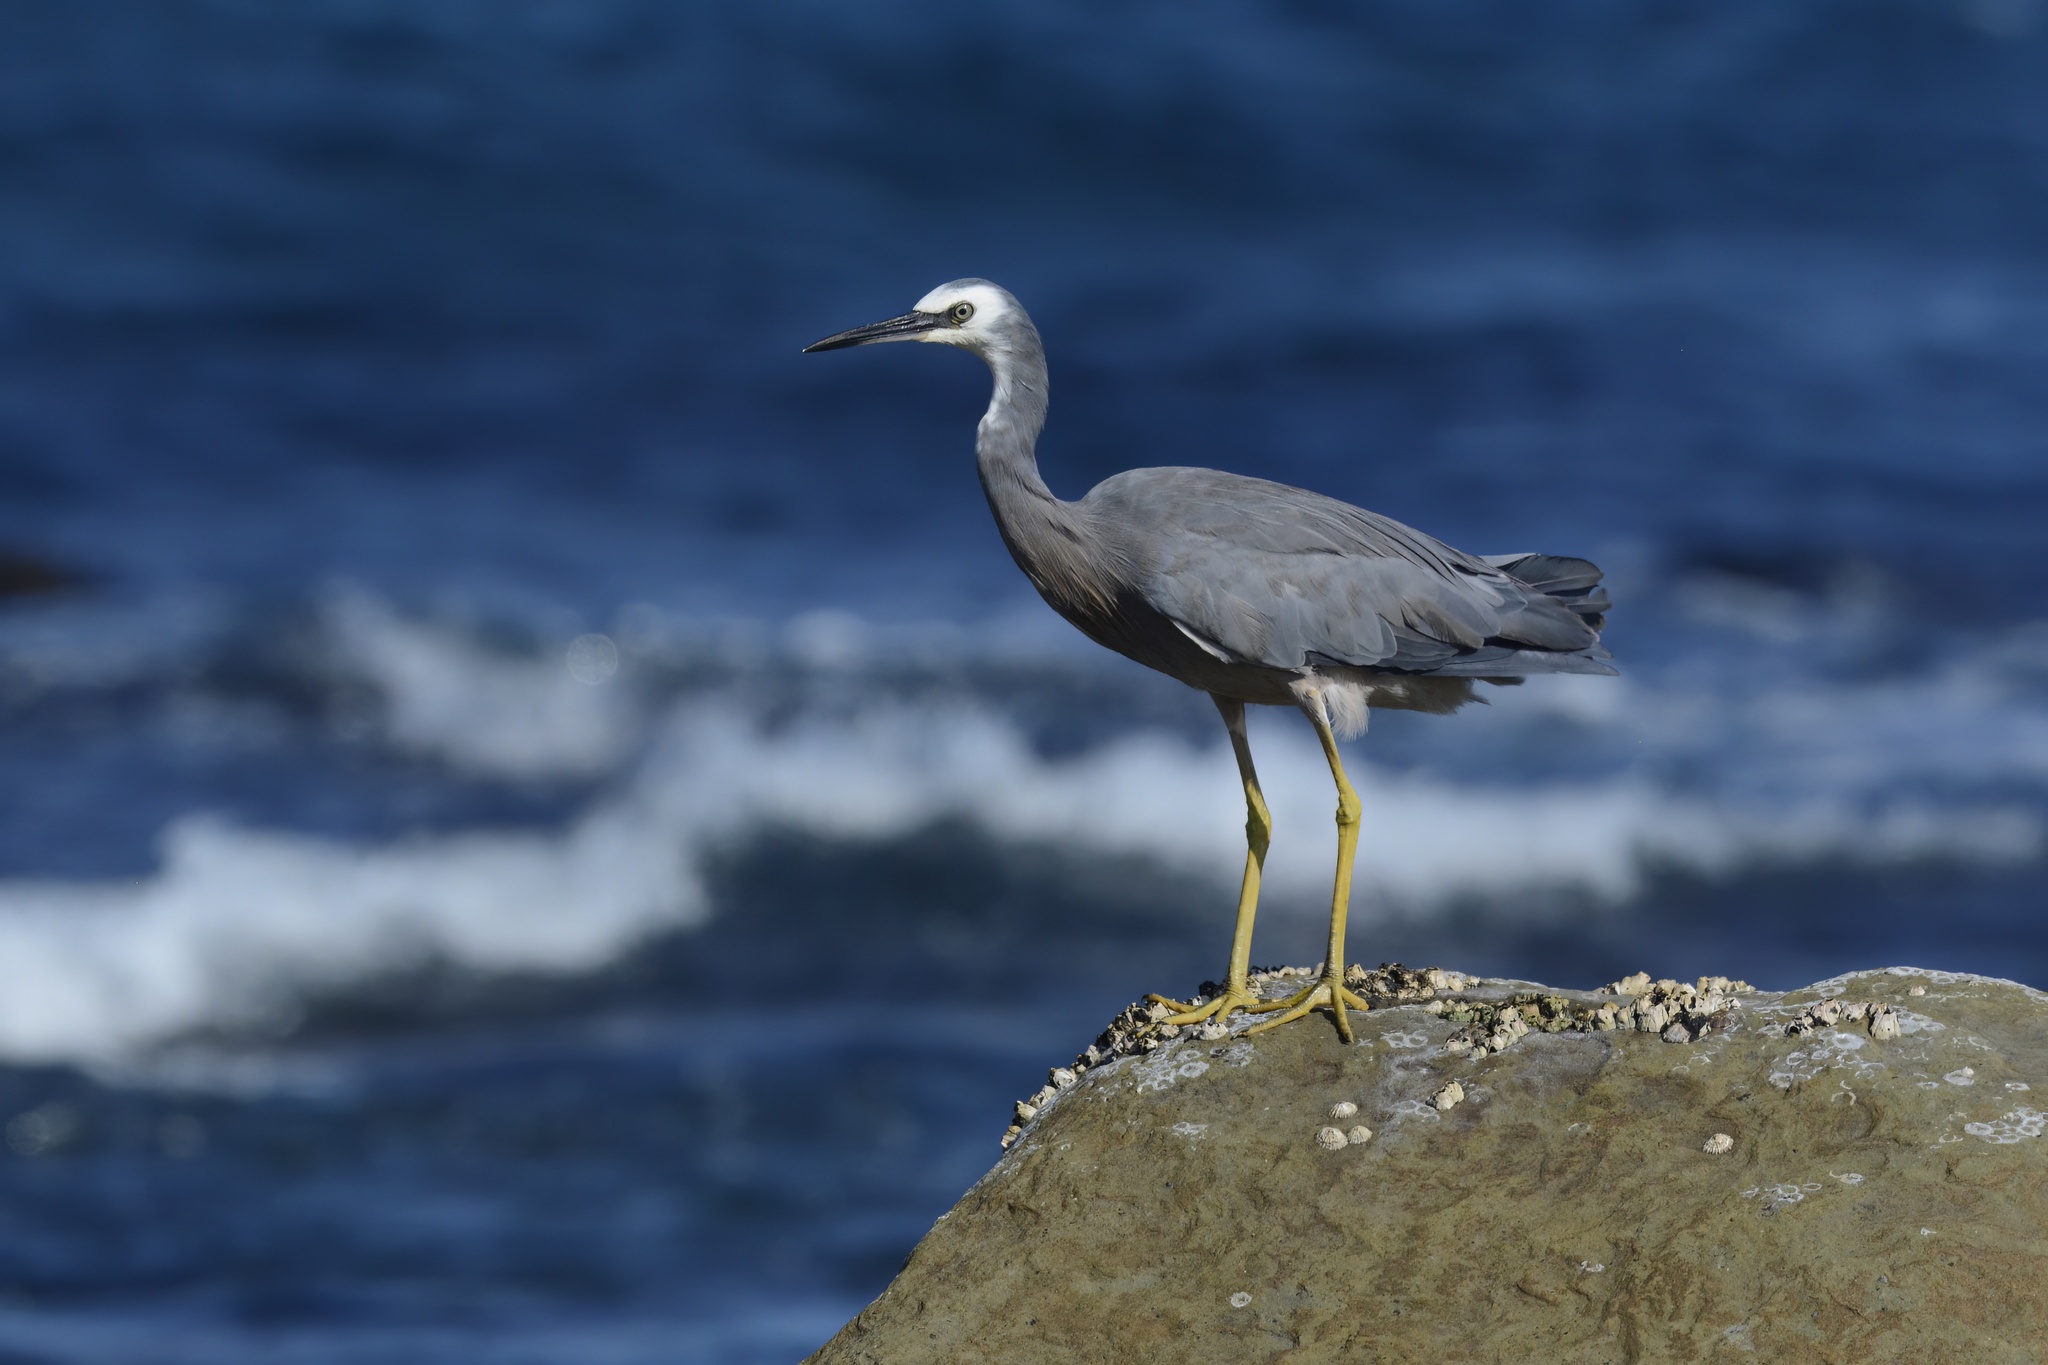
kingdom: Animalia
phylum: Chordata
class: Aves
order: Pelecaniformes
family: Ardeidae
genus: Egretta
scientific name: Egretta novaehollandiae
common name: White-faced heron
